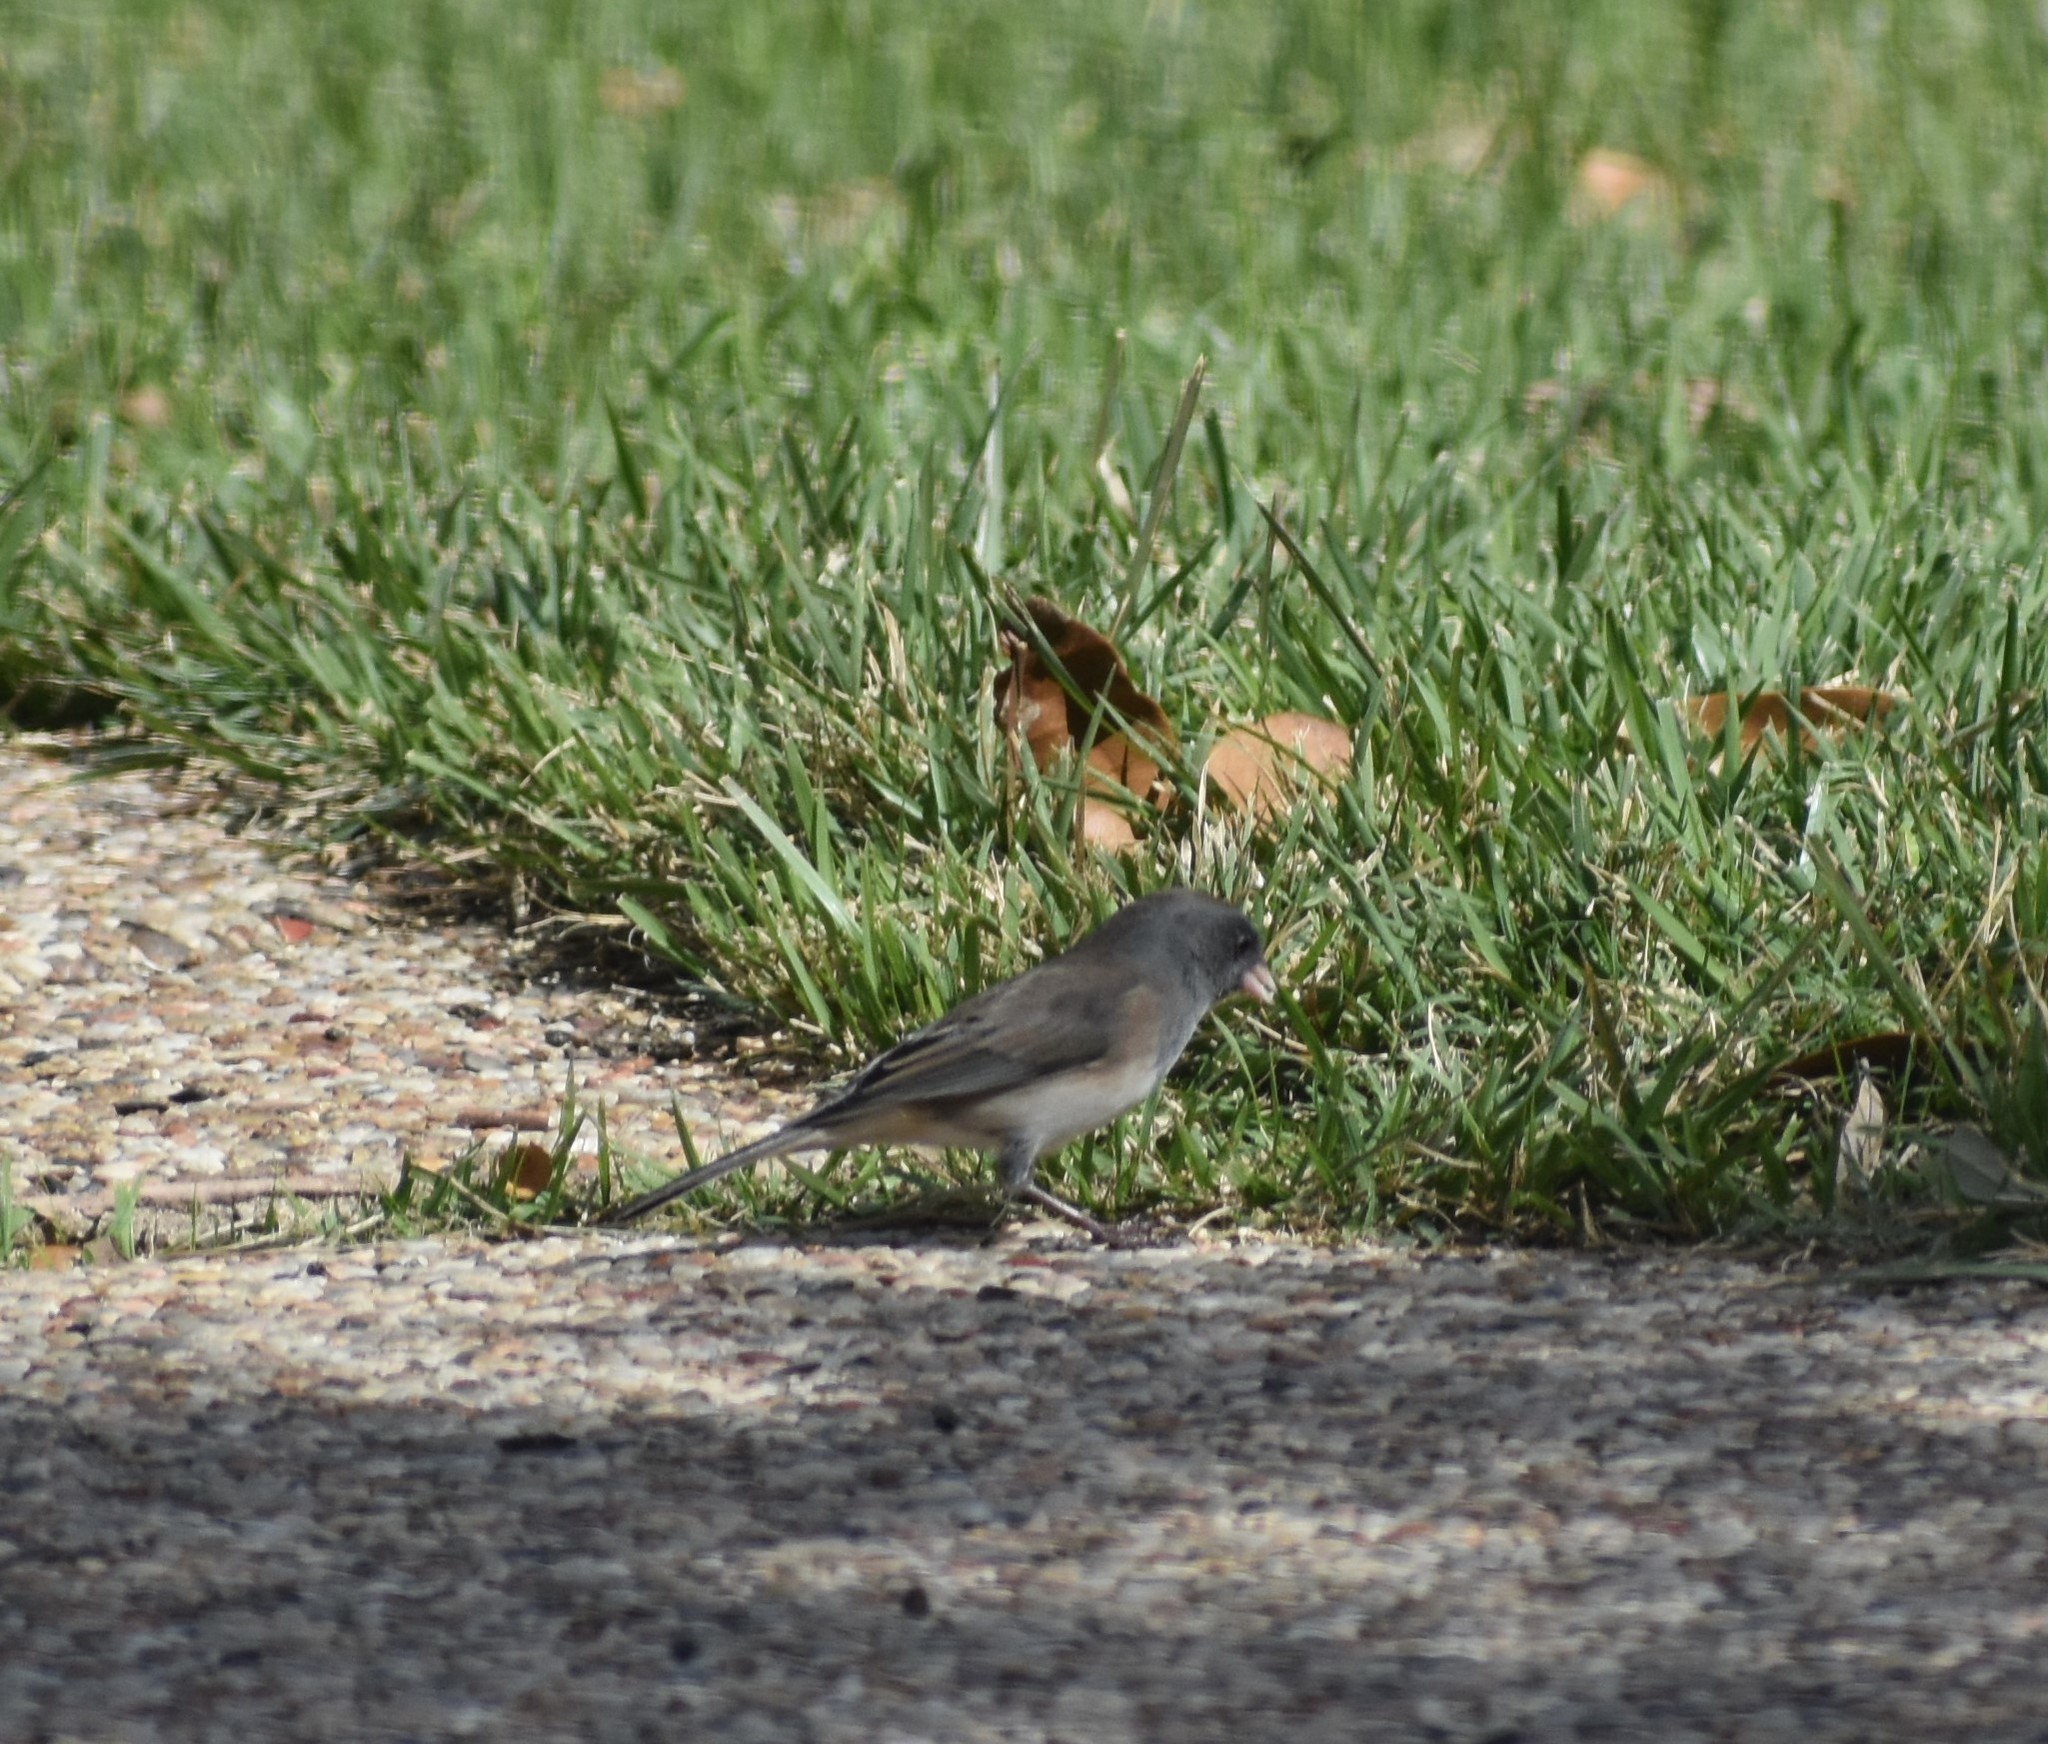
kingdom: Animalia
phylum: Chordata
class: Aves
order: Passeriformes
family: Passerellidae
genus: Junco
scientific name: Junco hyemalis
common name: Dark-eyed junco
